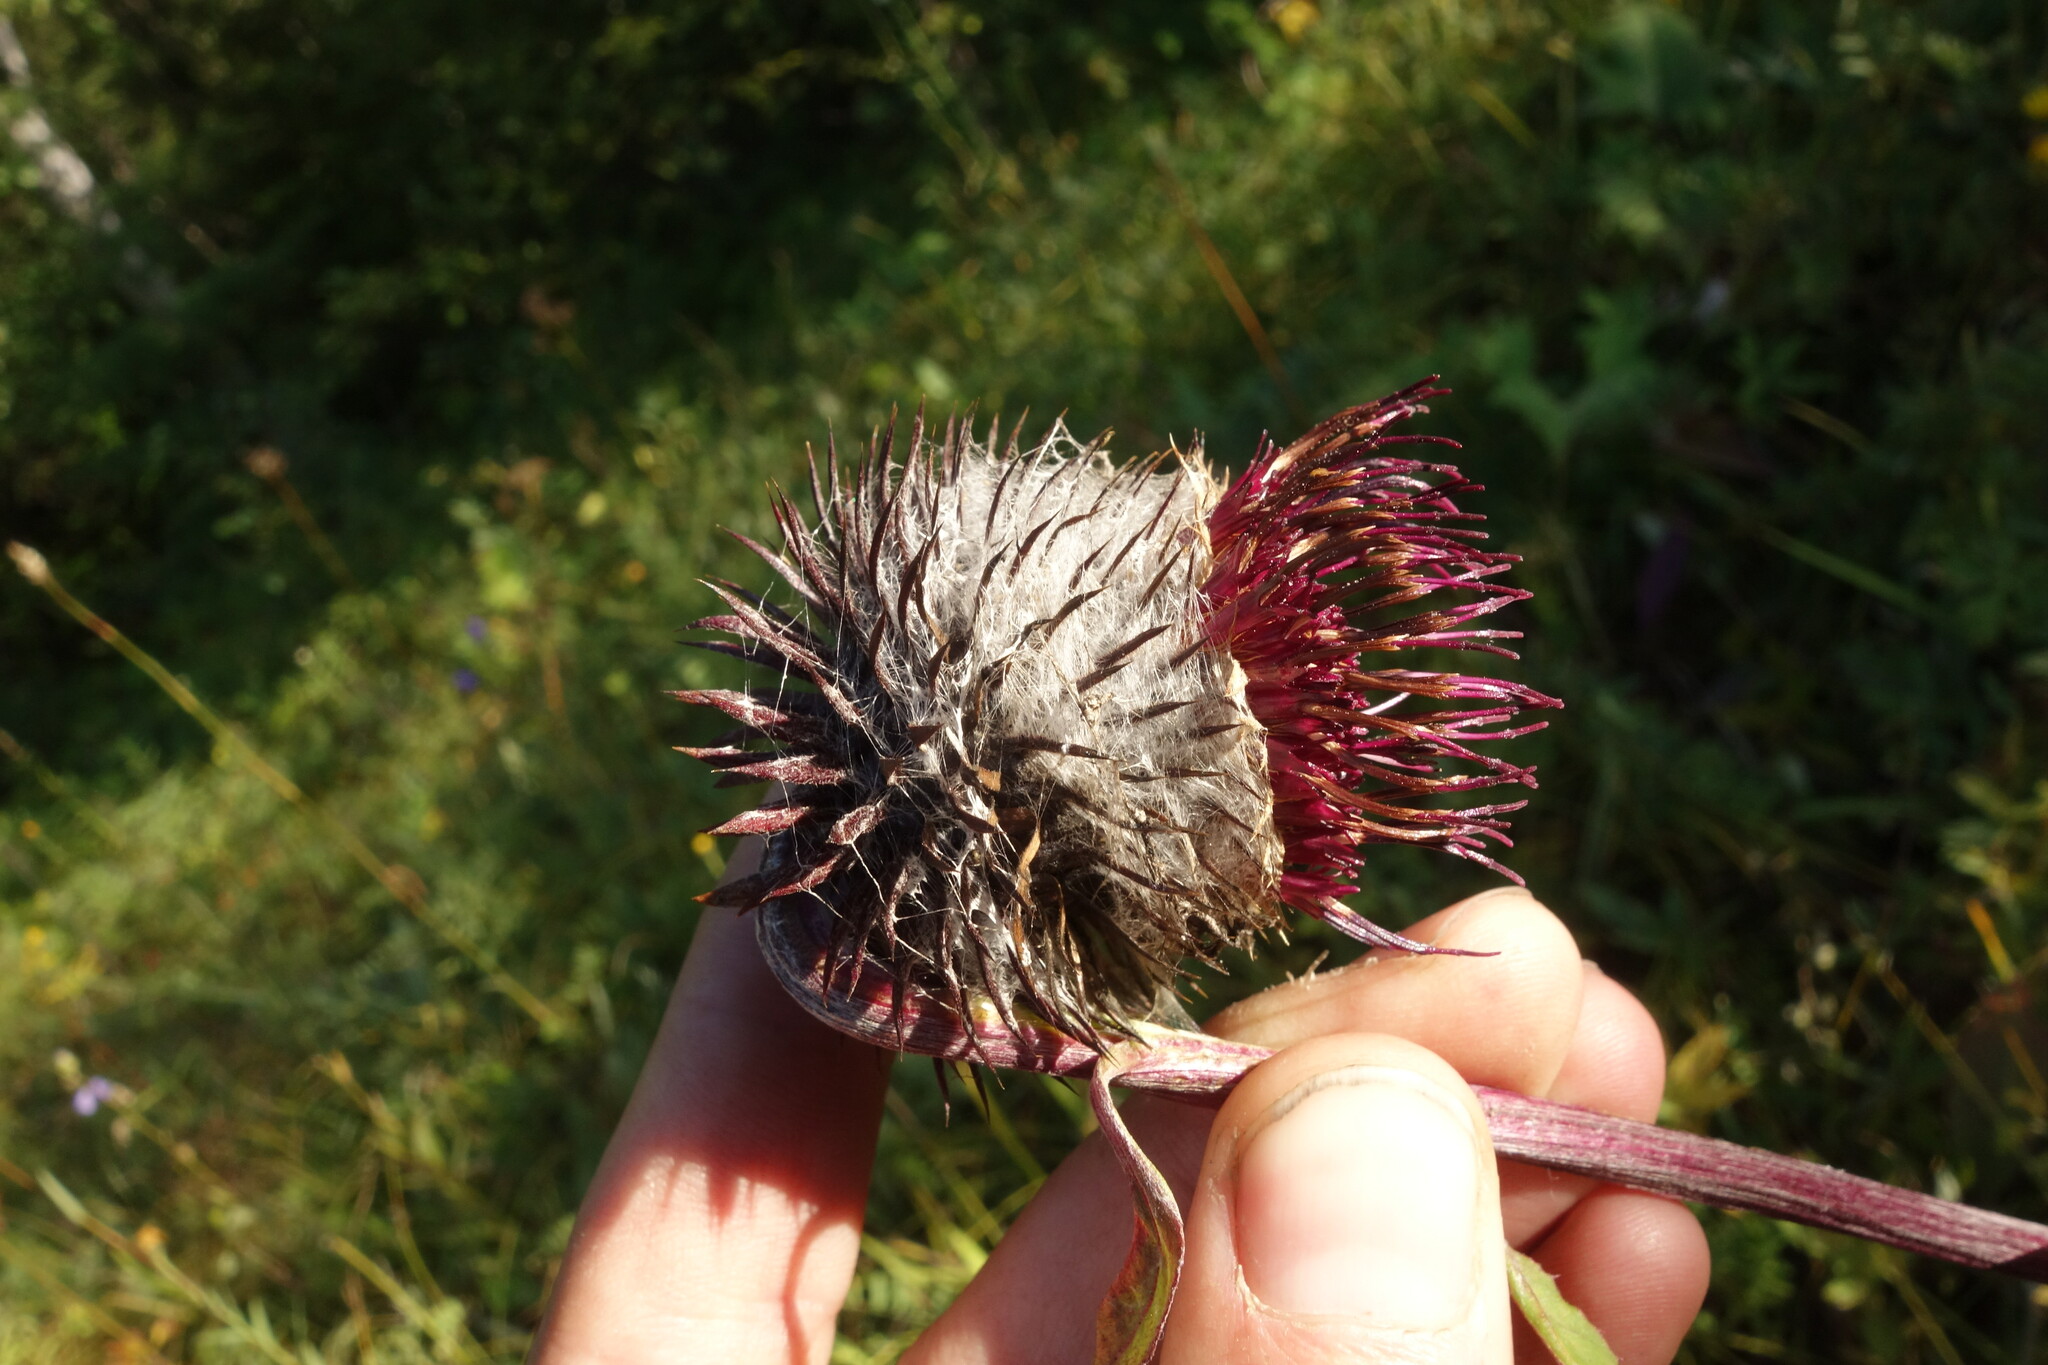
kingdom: Plantae
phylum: Tracheophyta
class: Magnoliopsida
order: Asterales
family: Asteraceae
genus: Synurus
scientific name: Synurus deltoides
